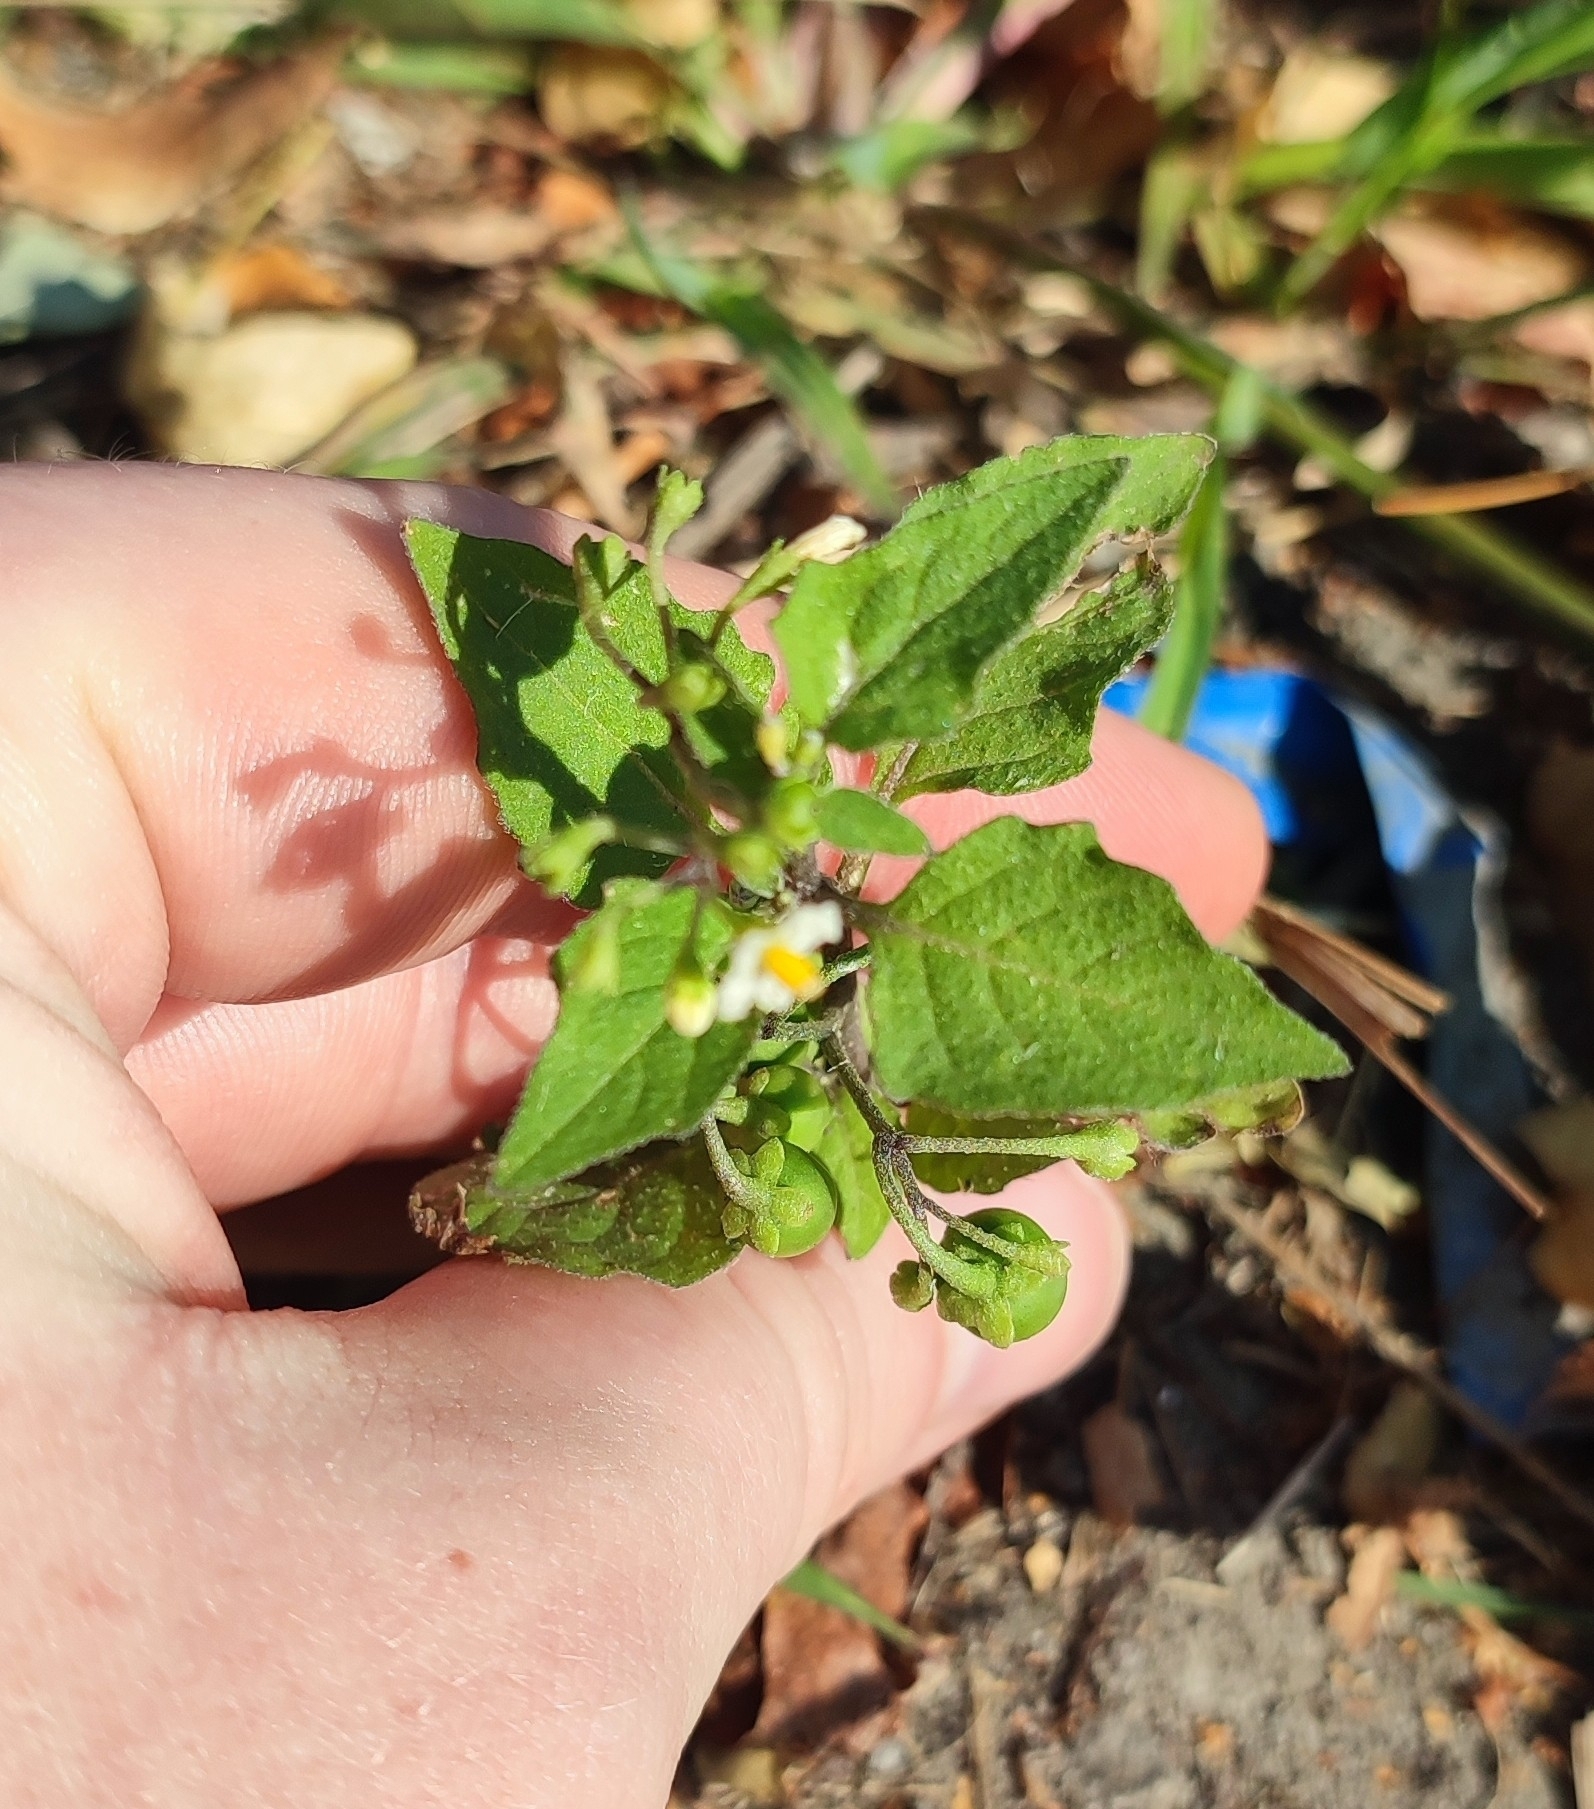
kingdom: Plantae
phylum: Tracheophyta
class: Magnoliopsida
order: Solanales
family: Solanaceae
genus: Solanum
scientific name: Solanum nigrum
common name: Black nightshade
